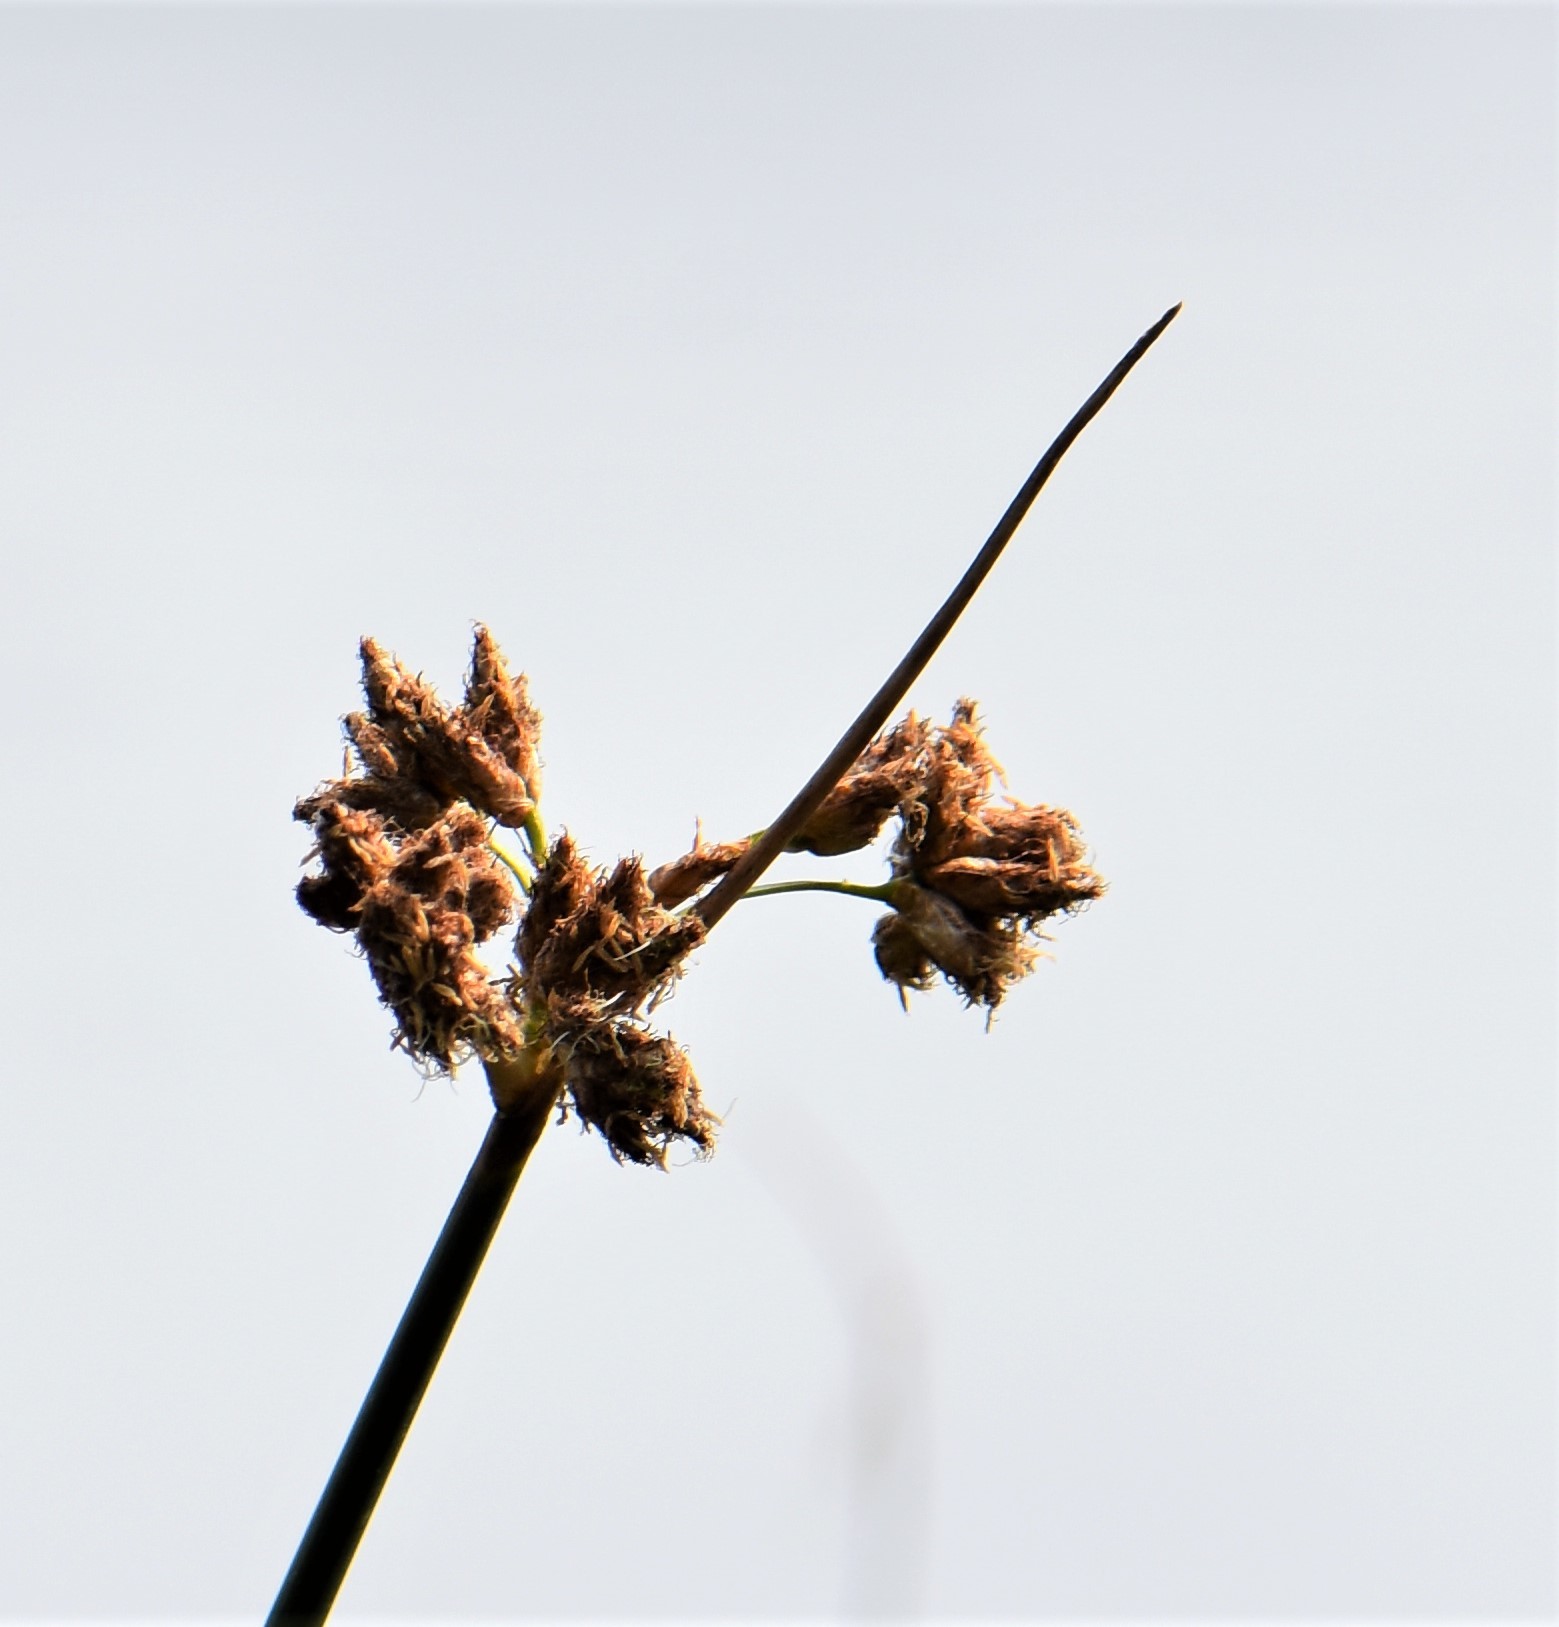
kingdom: Plantae
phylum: Tracheophyta
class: Liliopsida
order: Poales
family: Cyperaceae
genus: Schoenoplectus
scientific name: Schoenoplectus acutus
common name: Hardstem bulrush
